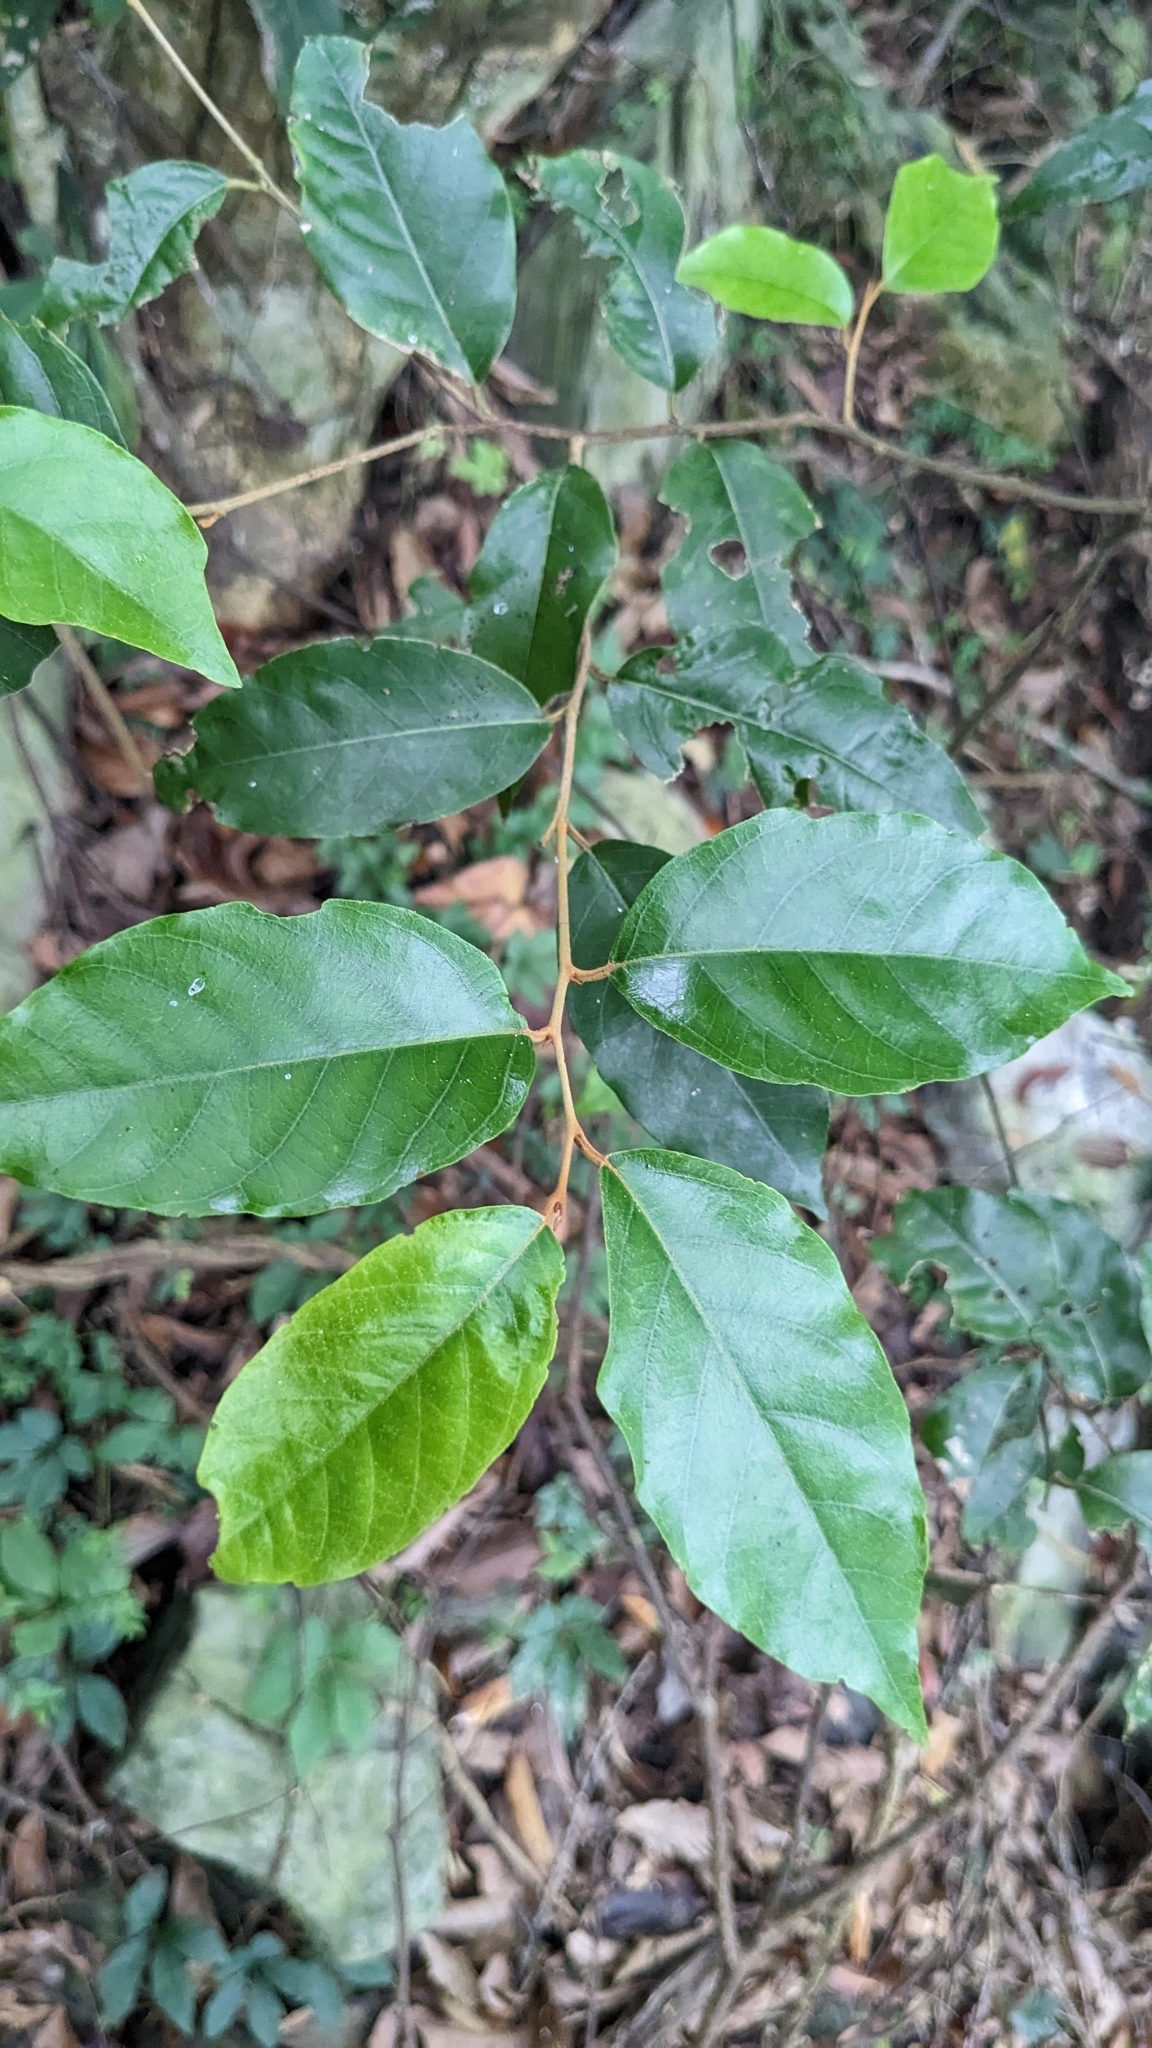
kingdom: Plantae
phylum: Tracheophyta
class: Magnoliopsida
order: Ericales
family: Styracaceae
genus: Styrax
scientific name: Styrax suberifolius
